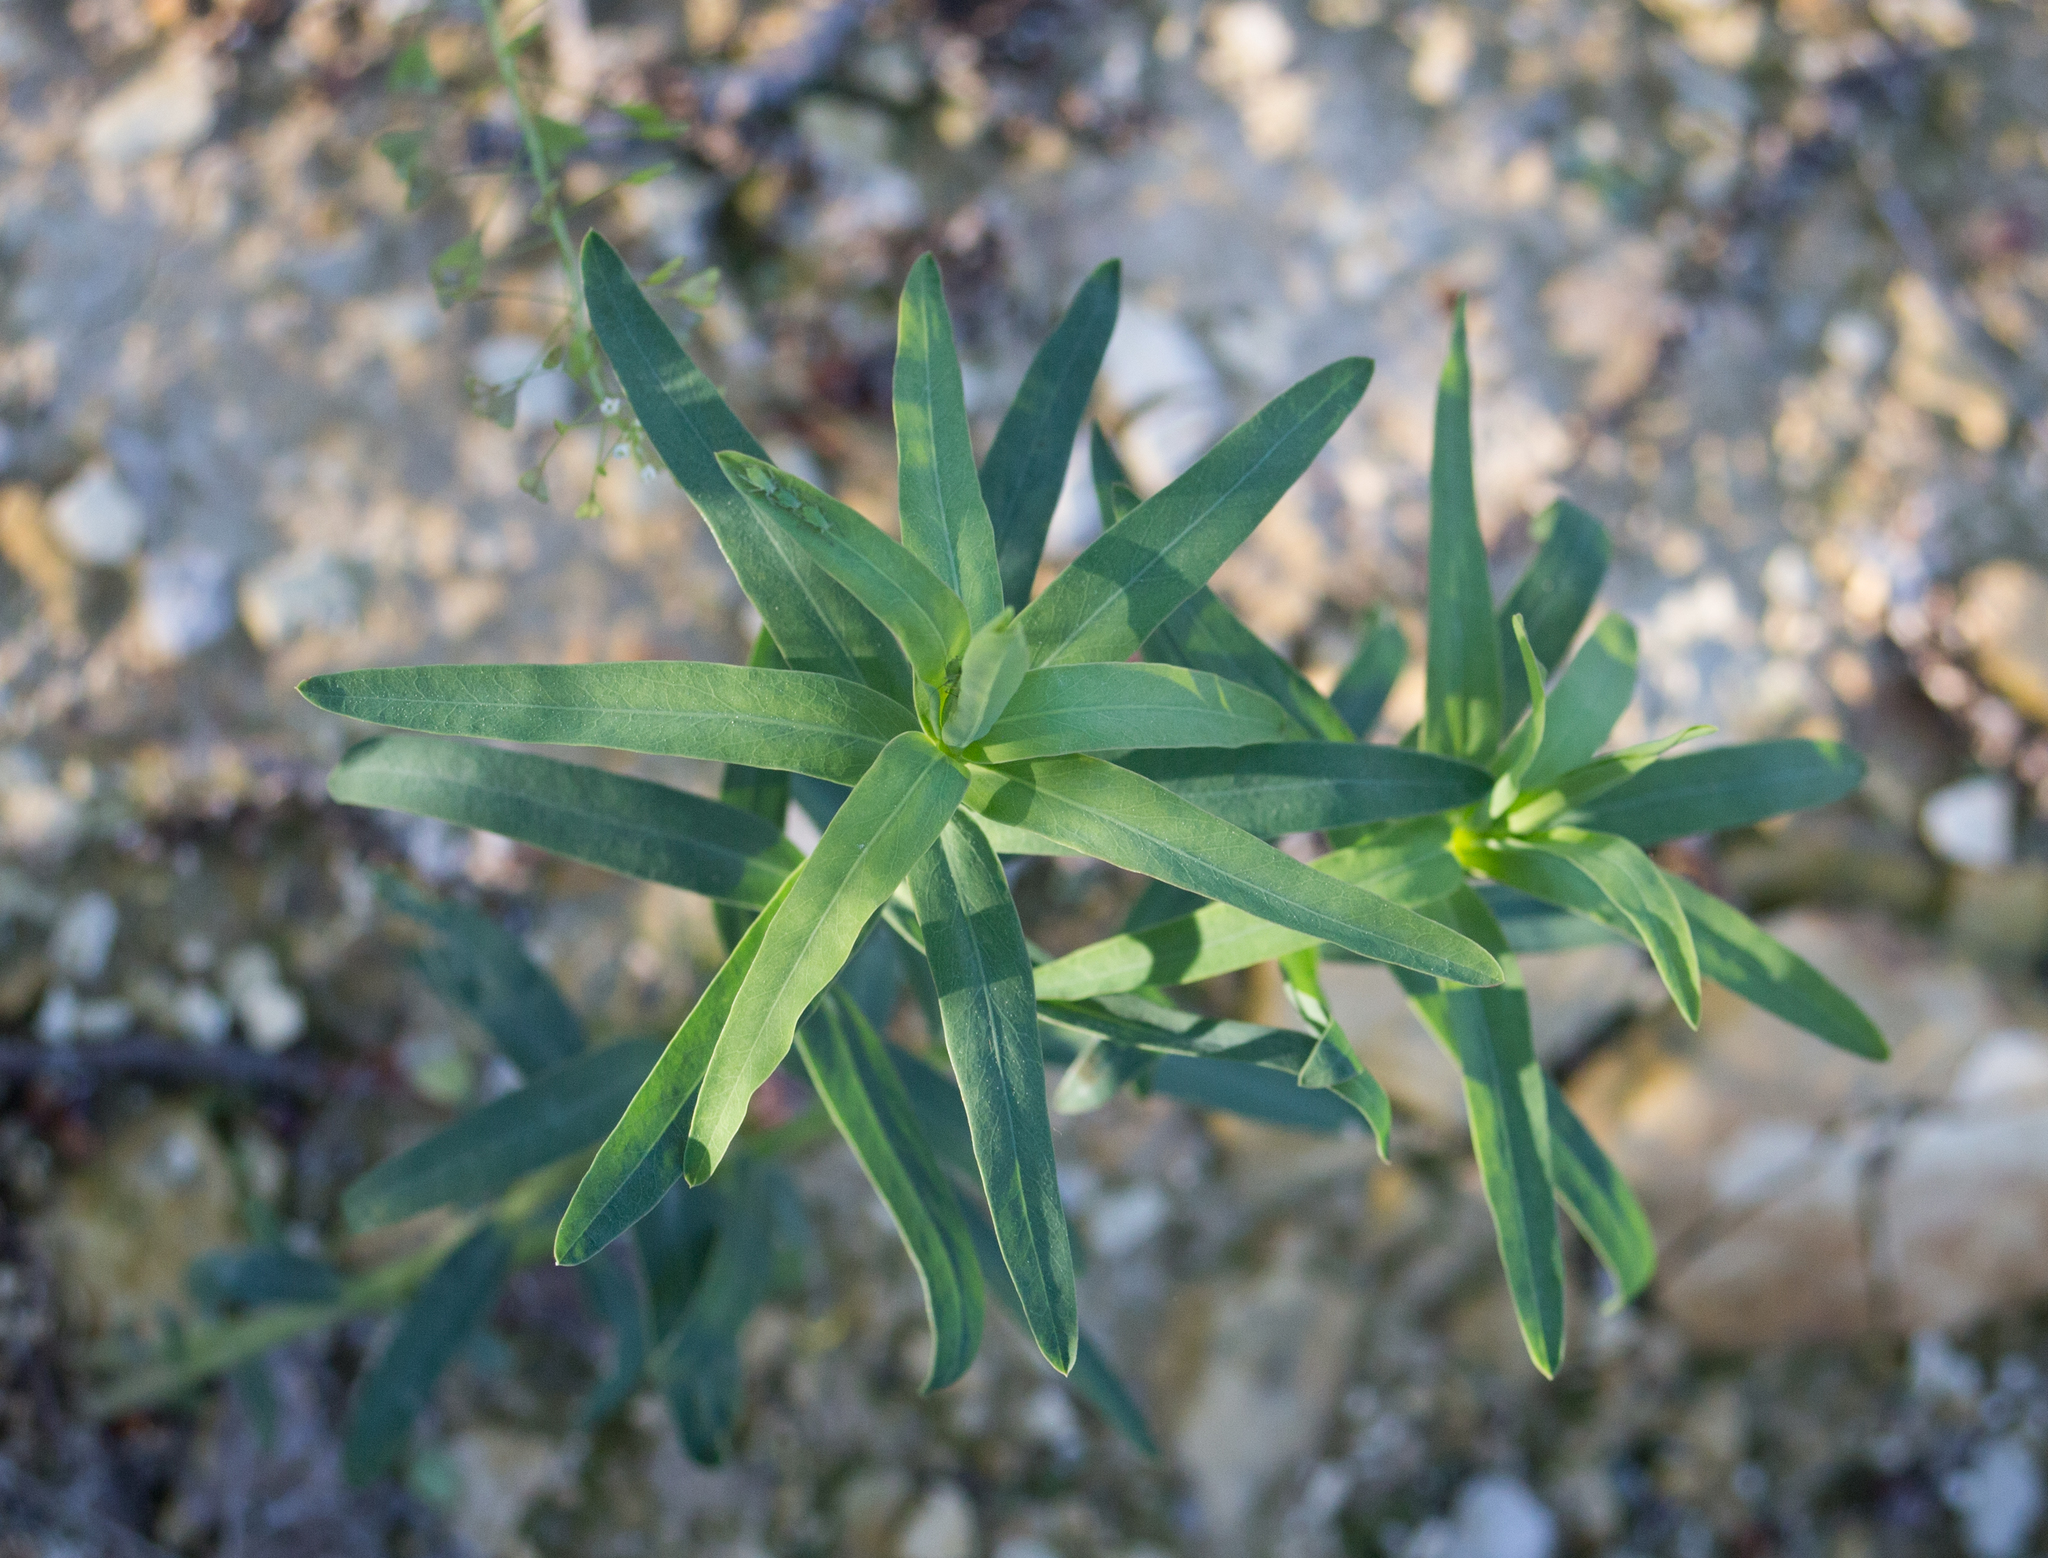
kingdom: Plantae
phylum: Tracheophyta
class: Magnoliopsida
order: Malpighiales
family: Euphorbiaceae
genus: Euphorbia
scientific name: Euphorbia virgata
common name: Leafy spurge
